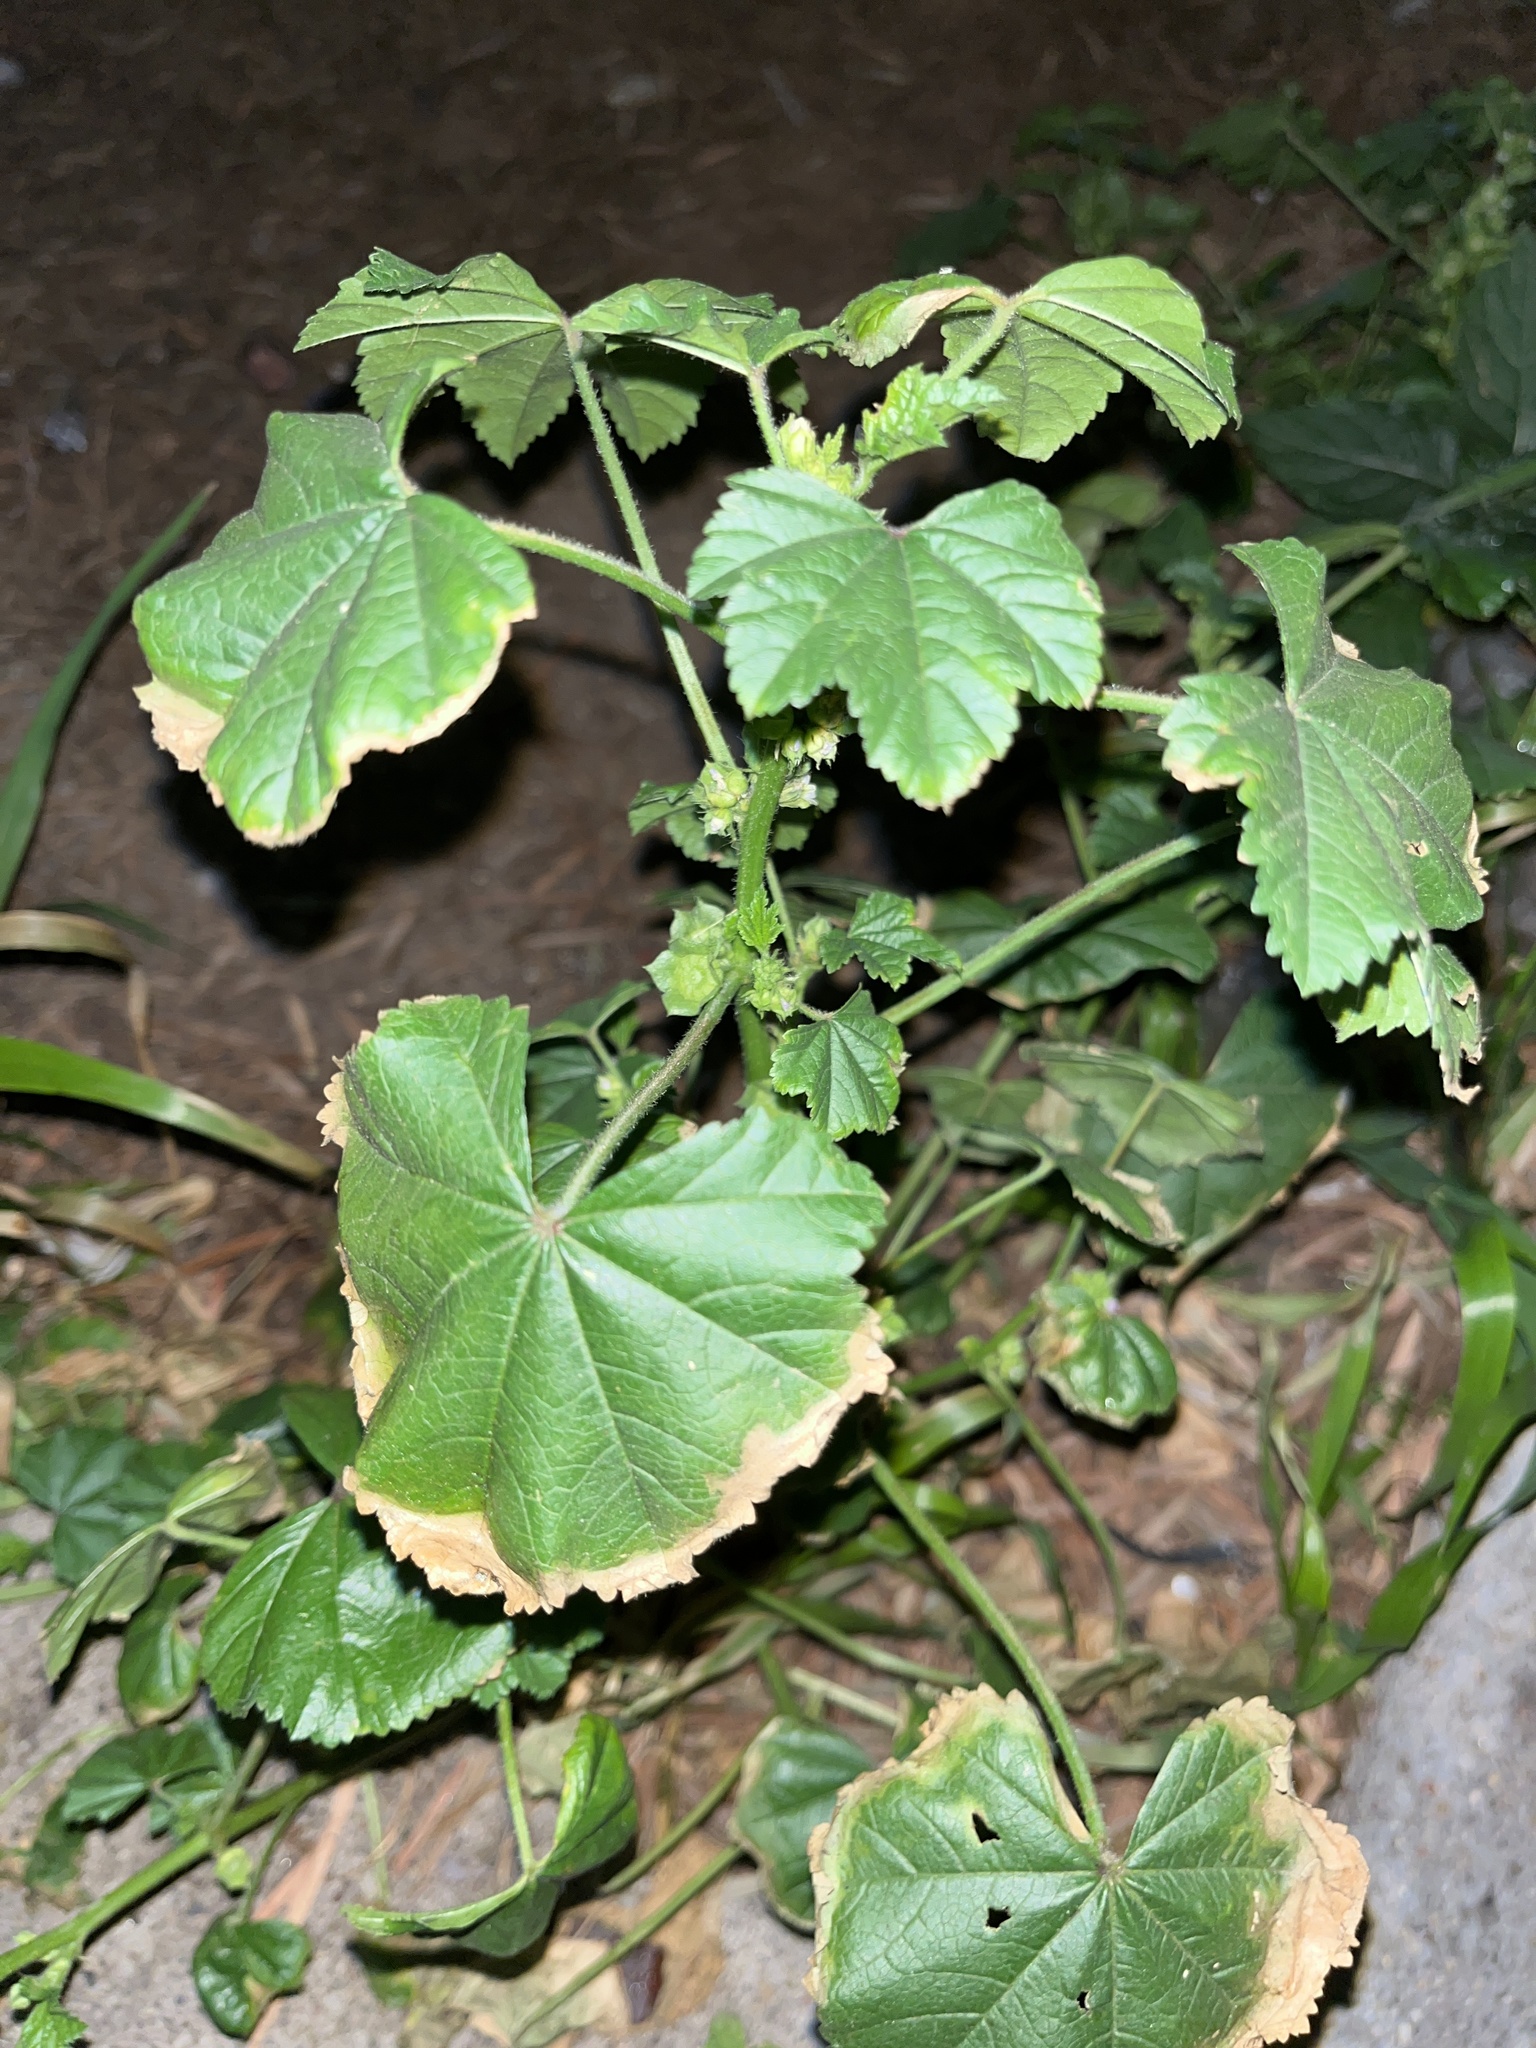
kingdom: Plantae
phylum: Tracheophyta
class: Magnoliopsida
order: Malvales
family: Malvaceae
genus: Malva
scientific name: Malva parviflora
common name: Least mallow
